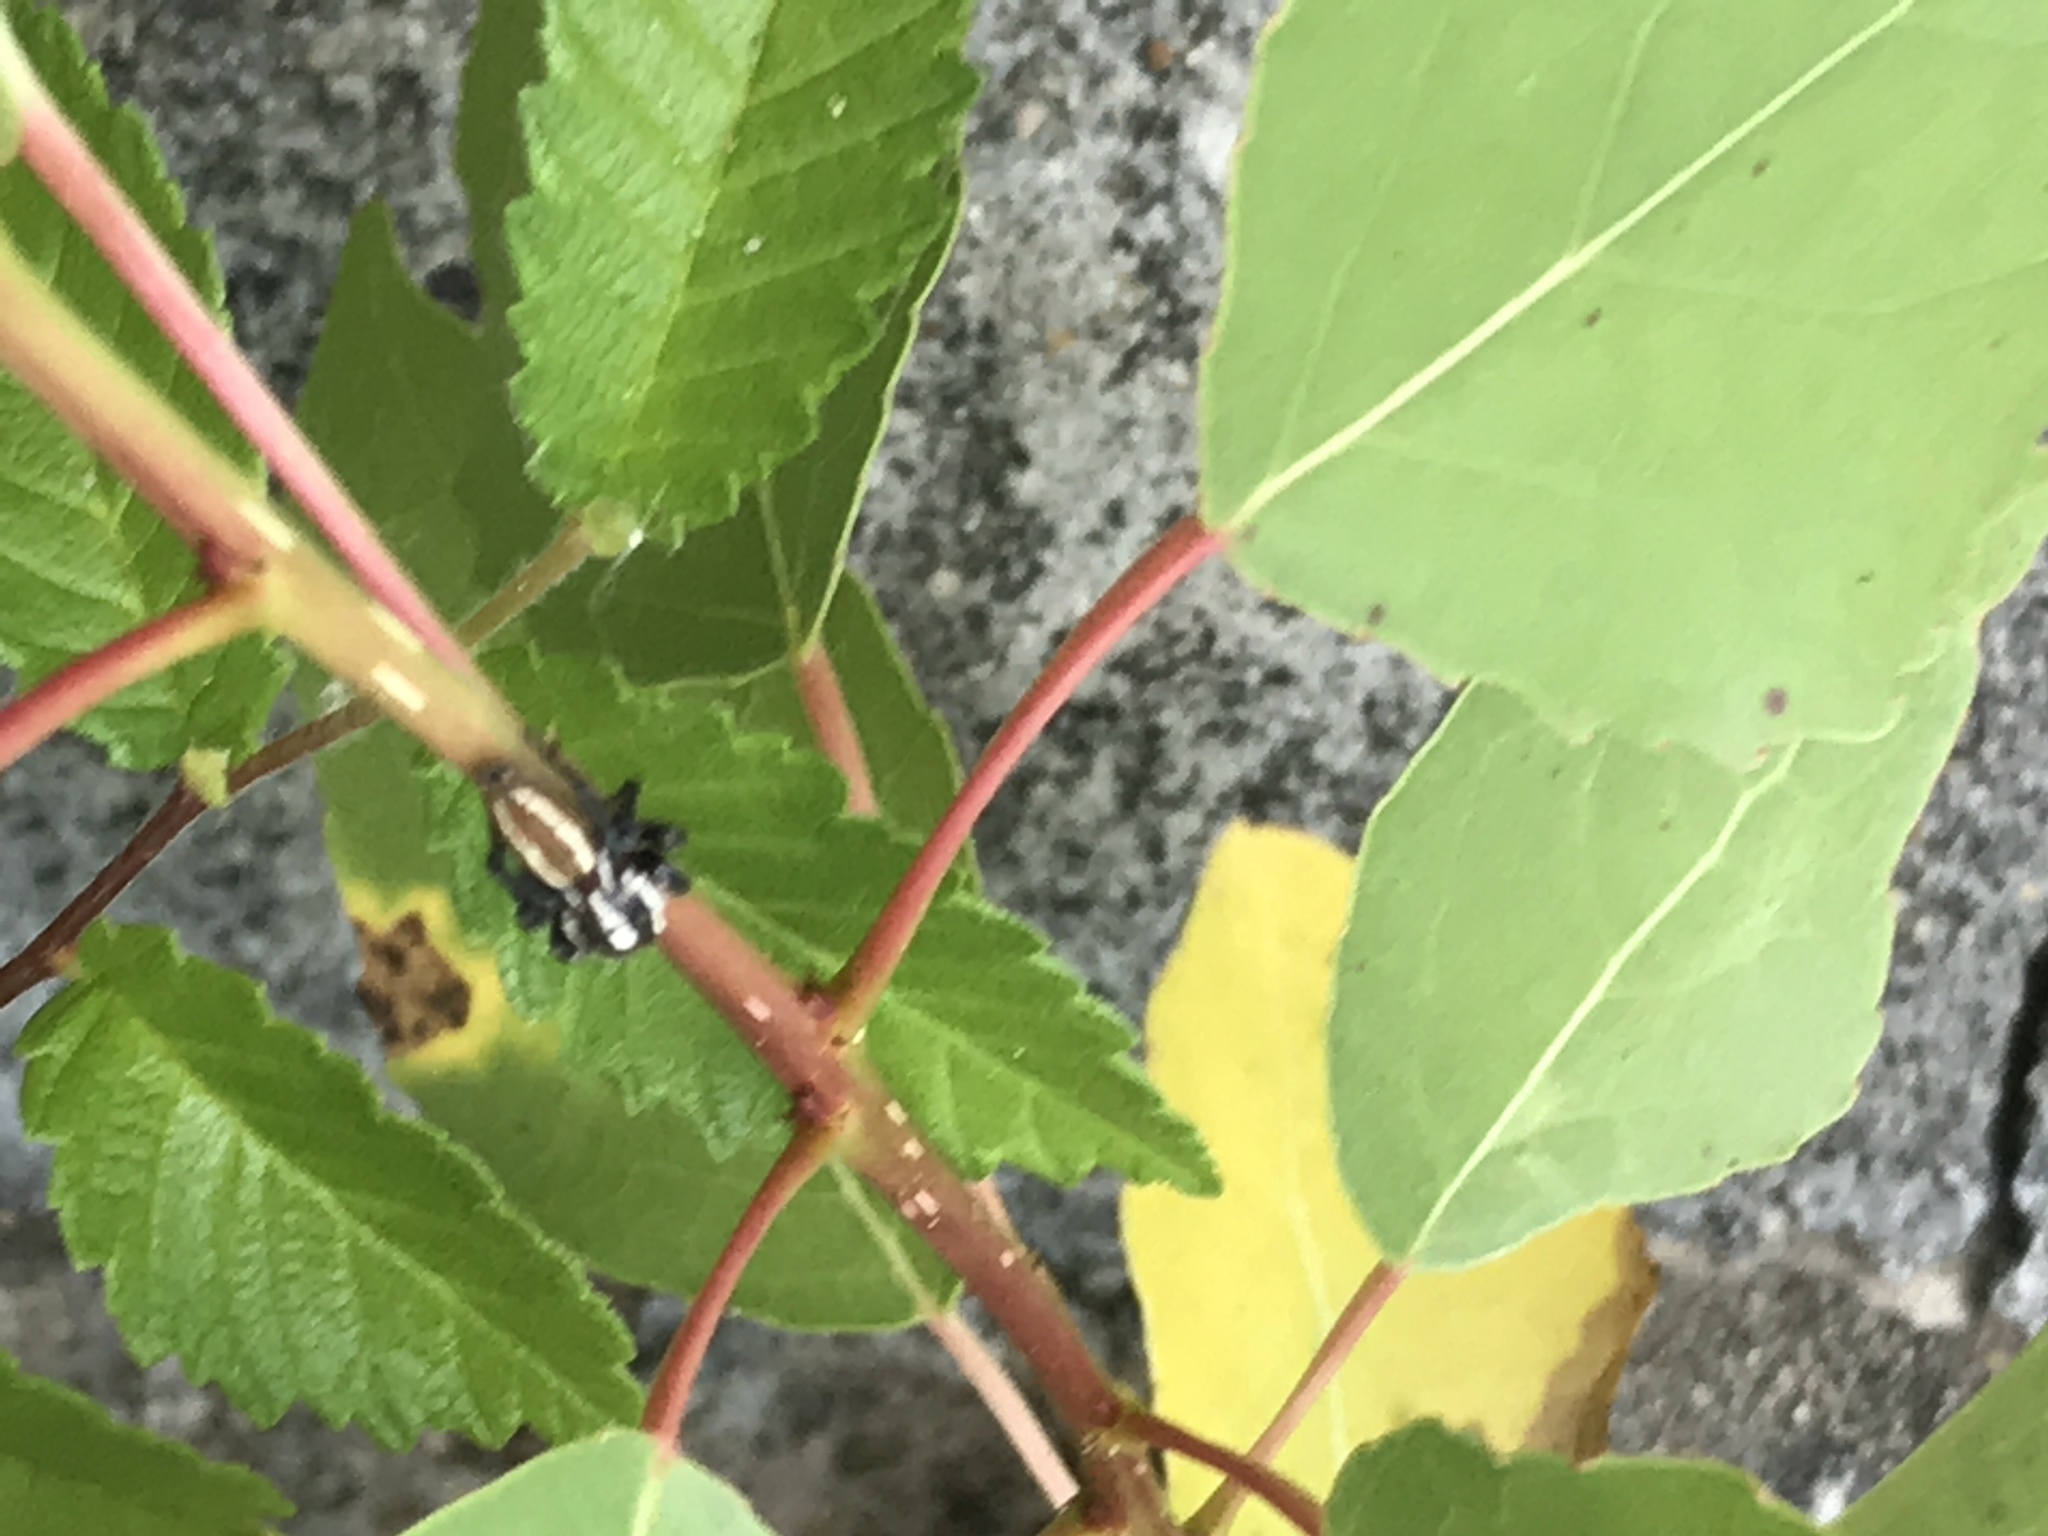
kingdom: Animalia
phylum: Arthropoda
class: Arachnida
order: Araneae
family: Salticidae
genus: Colonus
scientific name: Colonus puerperus
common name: Jumping spiders
